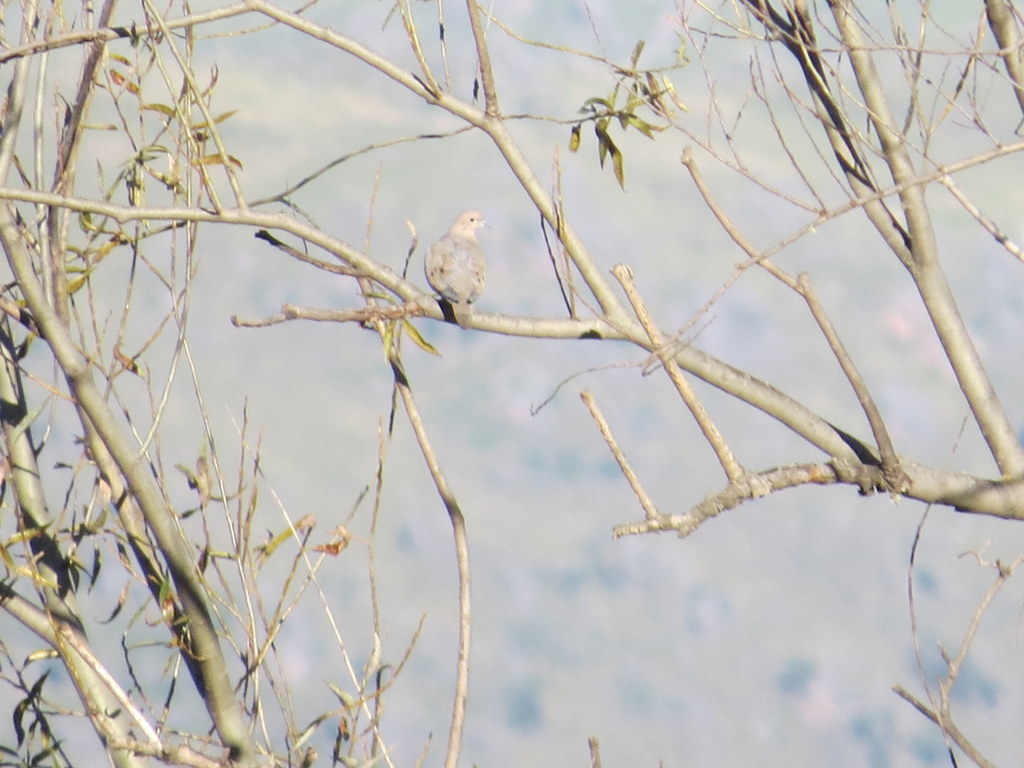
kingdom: Animalia
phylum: Chordata
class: Aves
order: Columbiformes
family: Columbidae
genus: Zenaida
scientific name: Zenaida auriculata
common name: Eared dove
